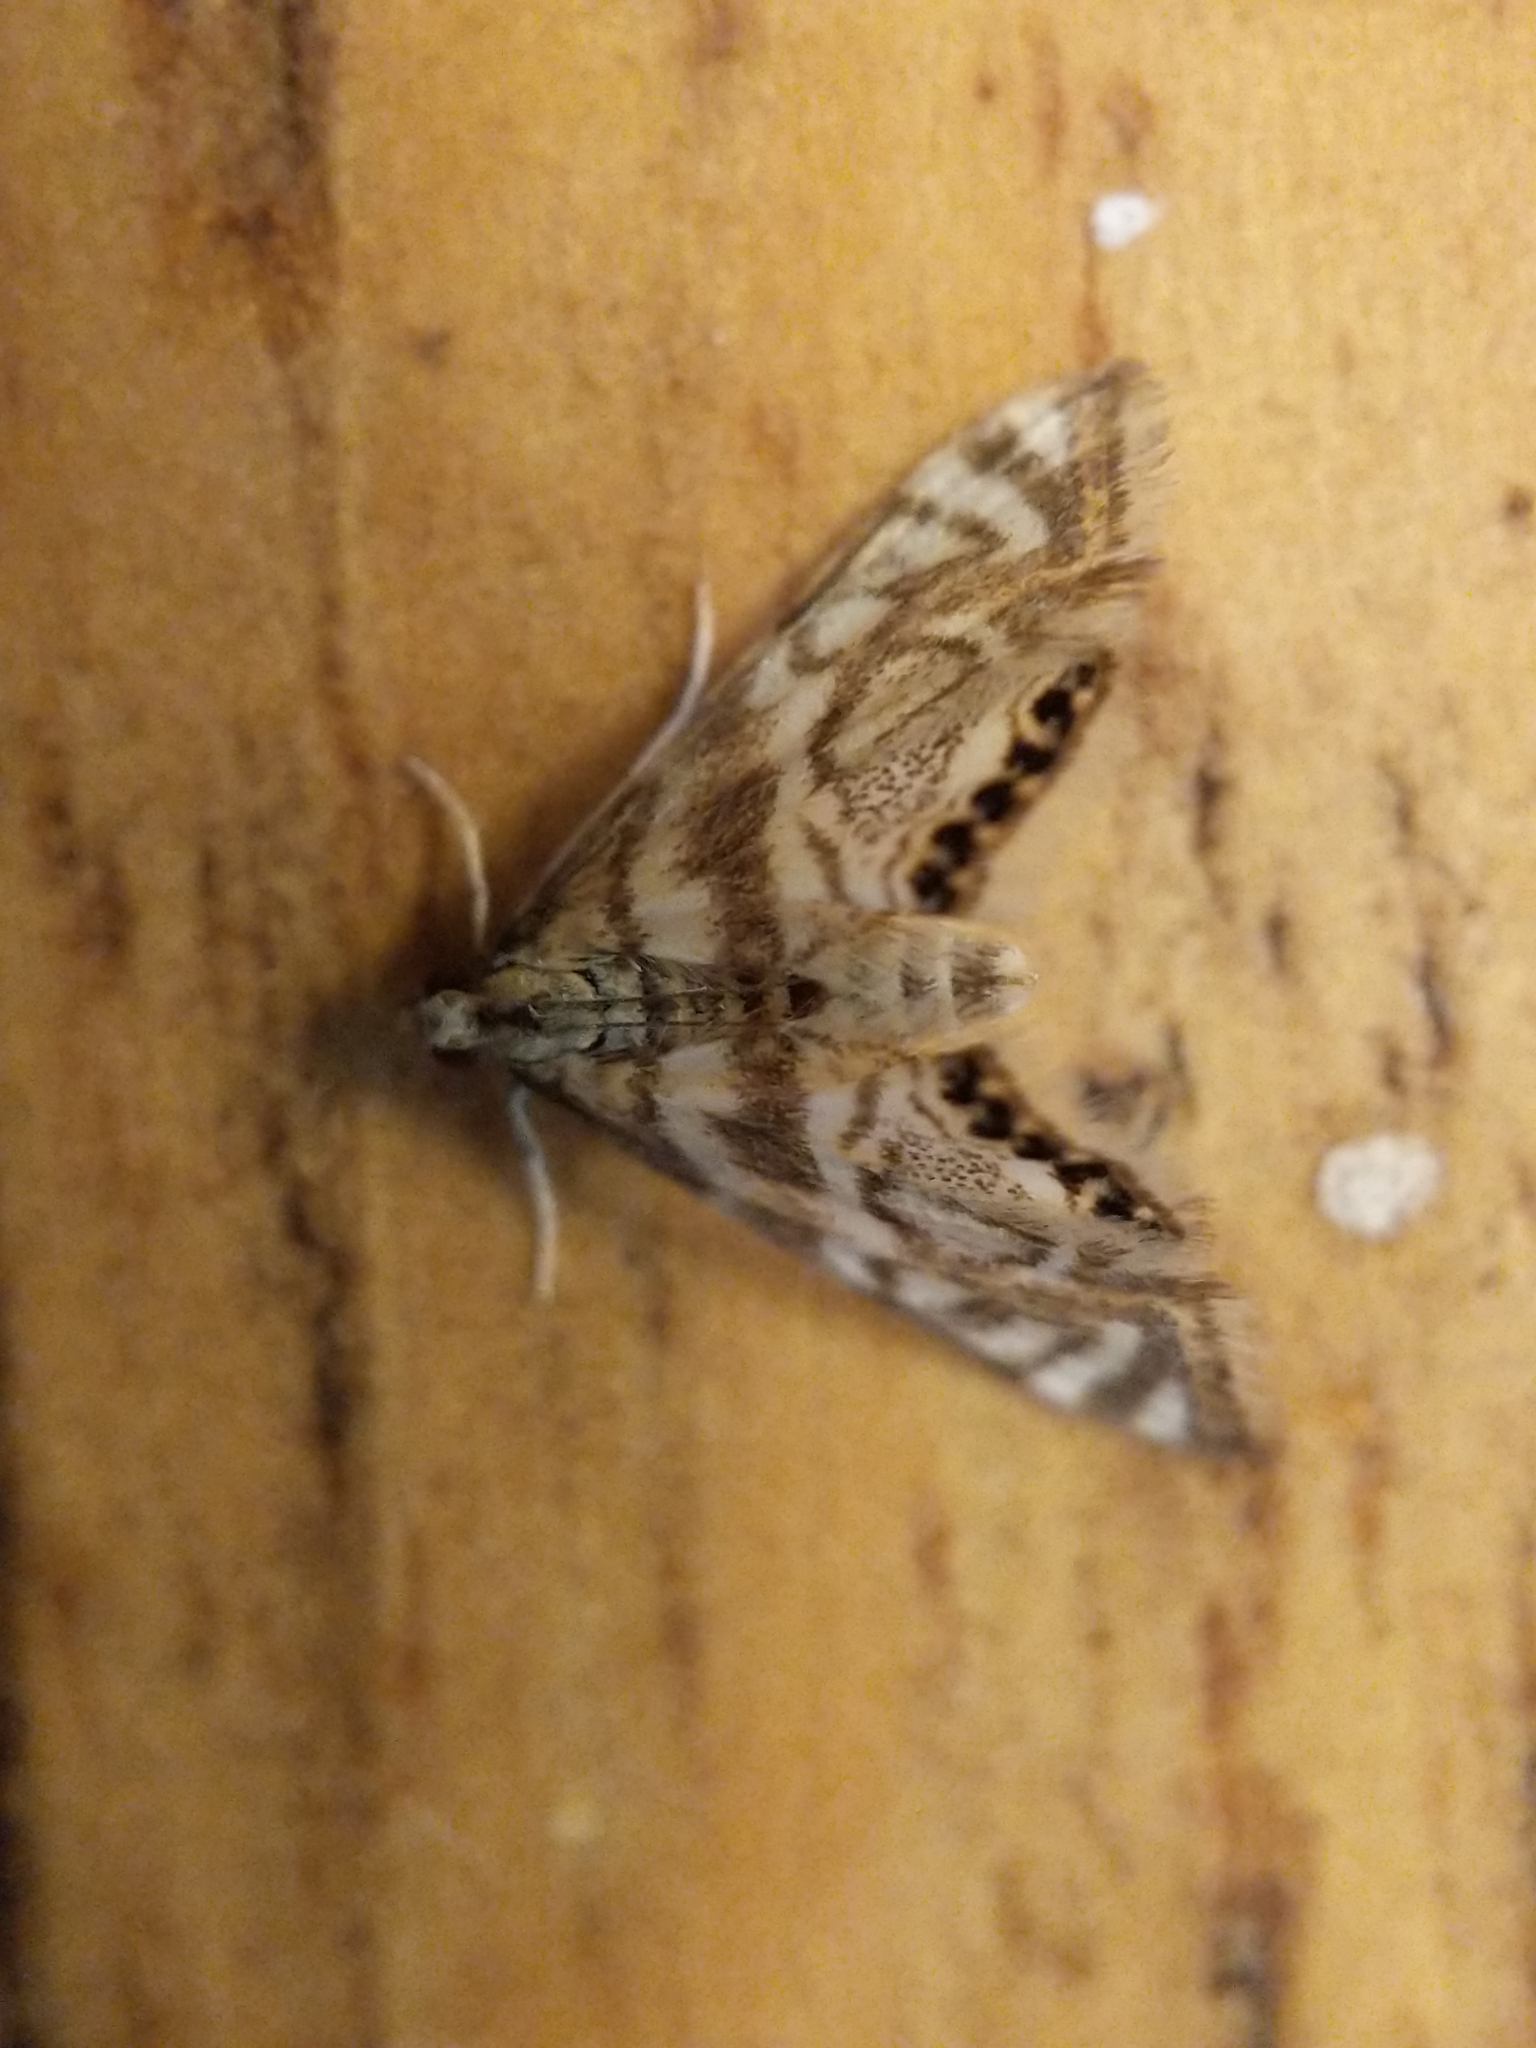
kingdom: Animalia
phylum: Arthropoda
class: Insecta
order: Lepidoptera
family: Crambidae
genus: Petrophila
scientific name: Petrophila canadensis
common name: Canadian petrophila
